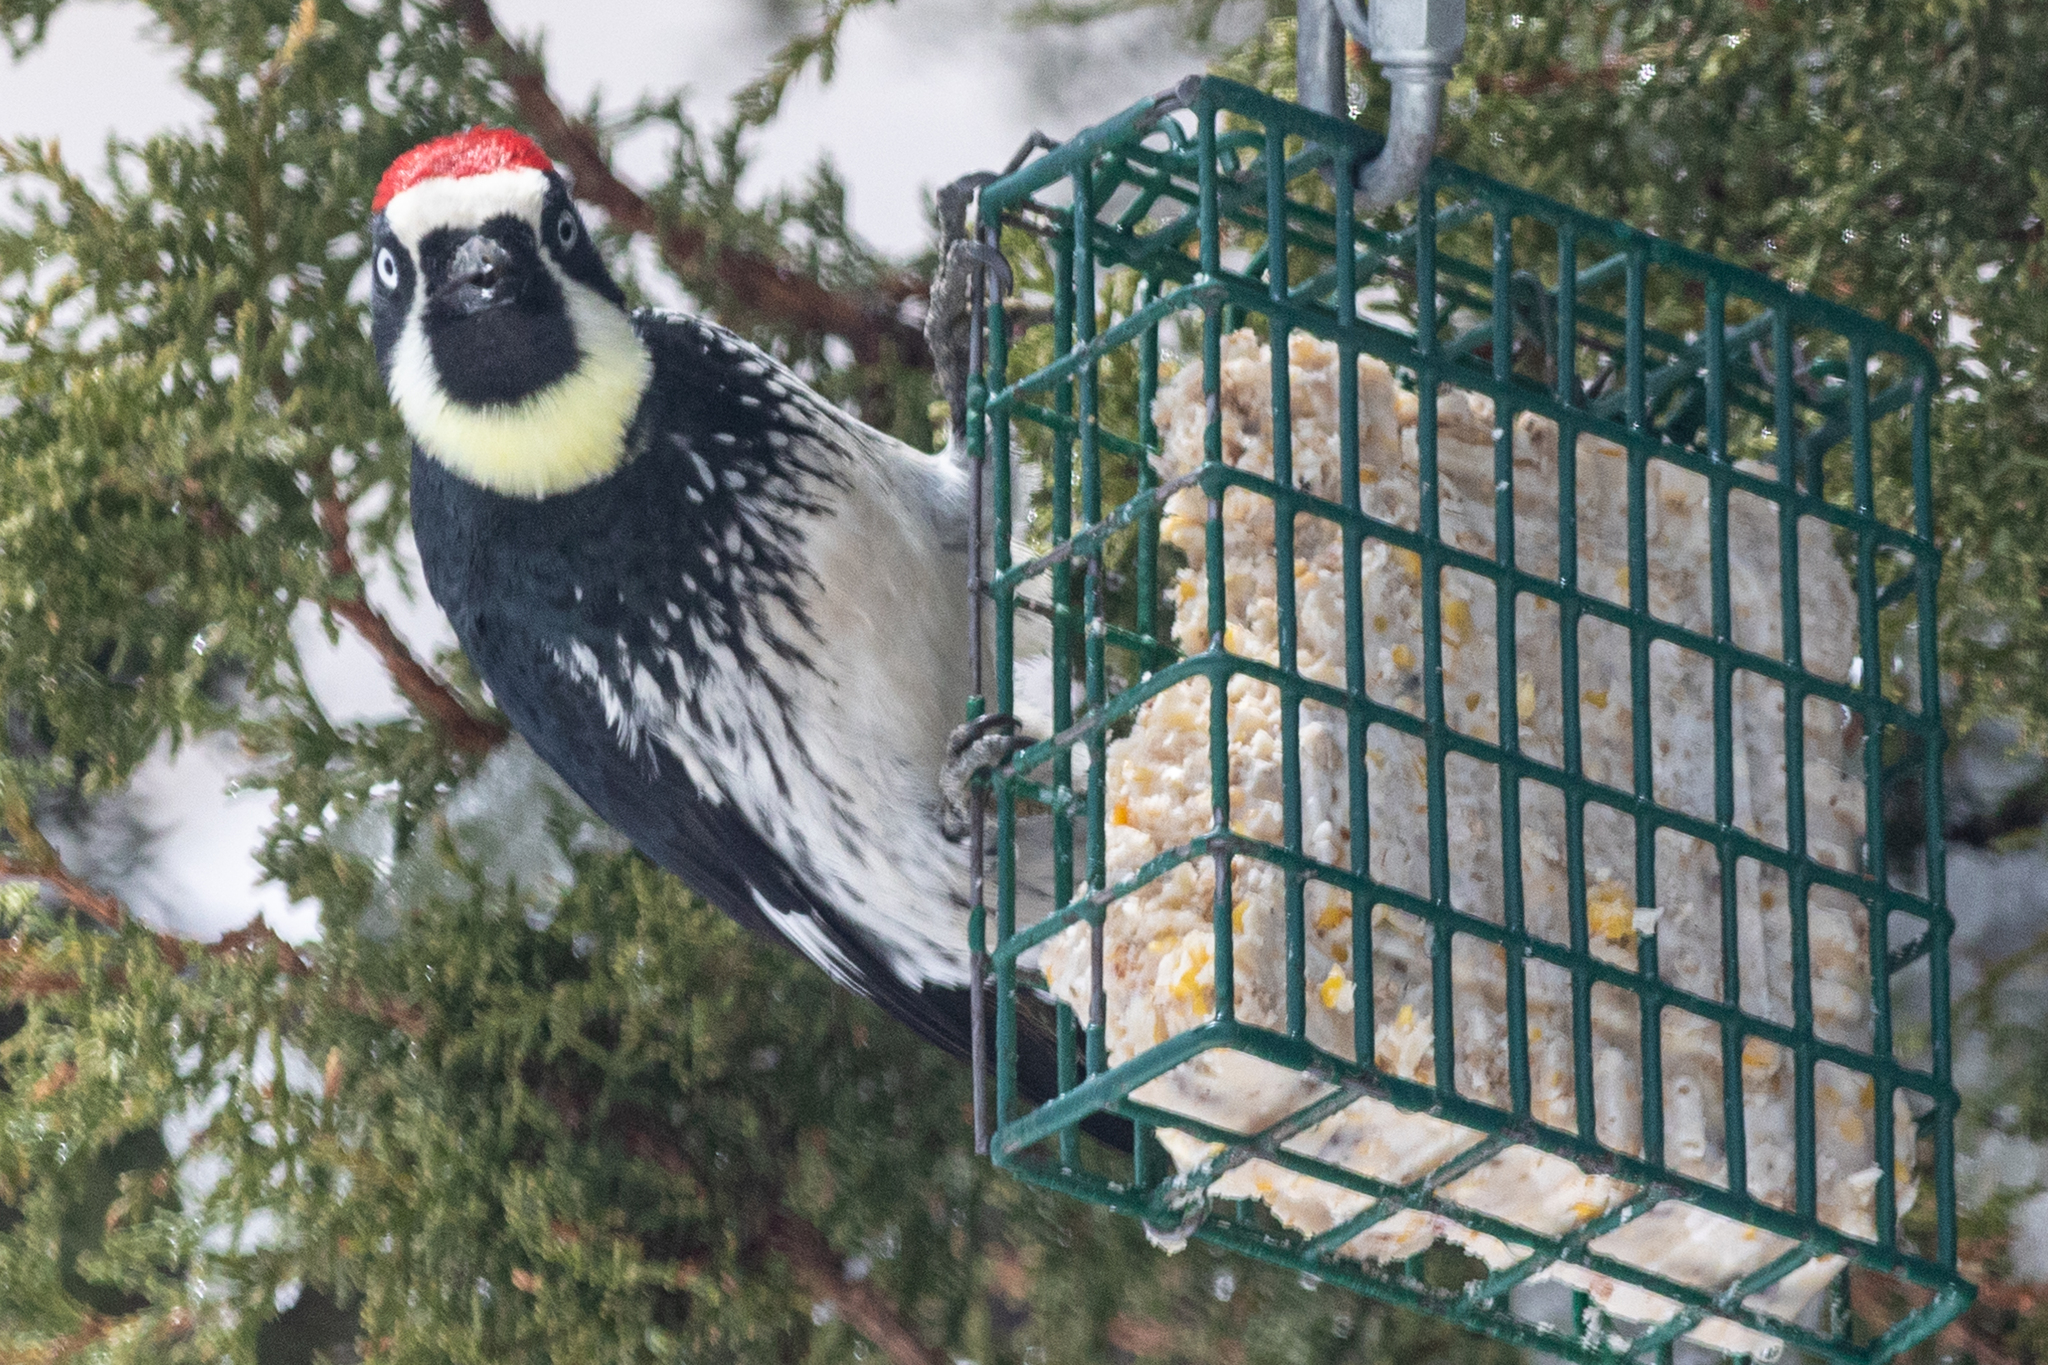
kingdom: Animalia
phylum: Chordata
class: Aves
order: Piciformes
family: Picidae
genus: Melanerpes
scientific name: Melanerpes formicivorus
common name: Acorn woodpecker
